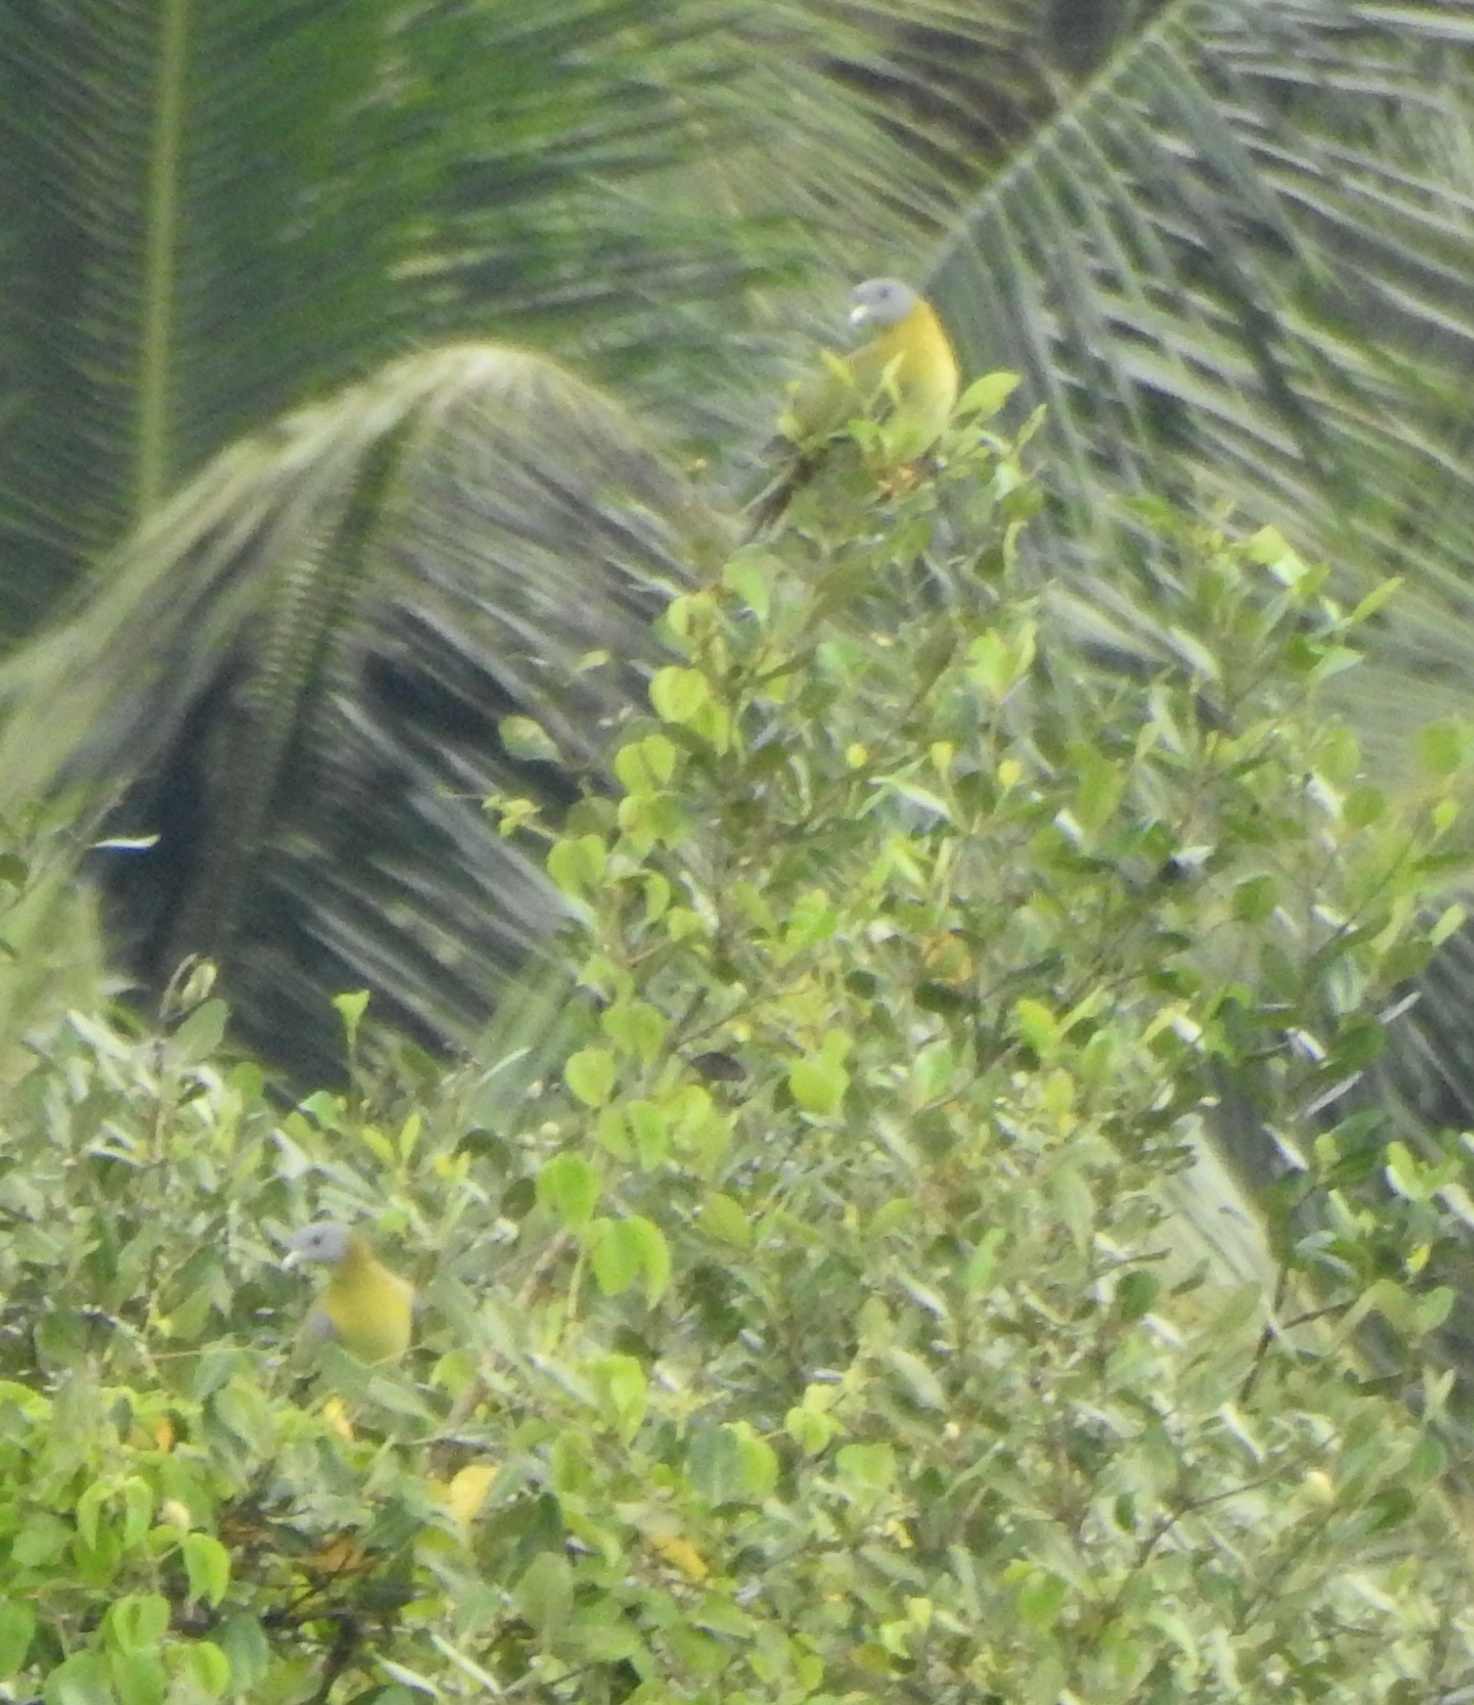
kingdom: Animalia
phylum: Chordata
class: Aves
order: Columbiformes
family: Columbidae
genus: Treron
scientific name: Treron phoenicopterus
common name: Yellow-footed green pigeon
